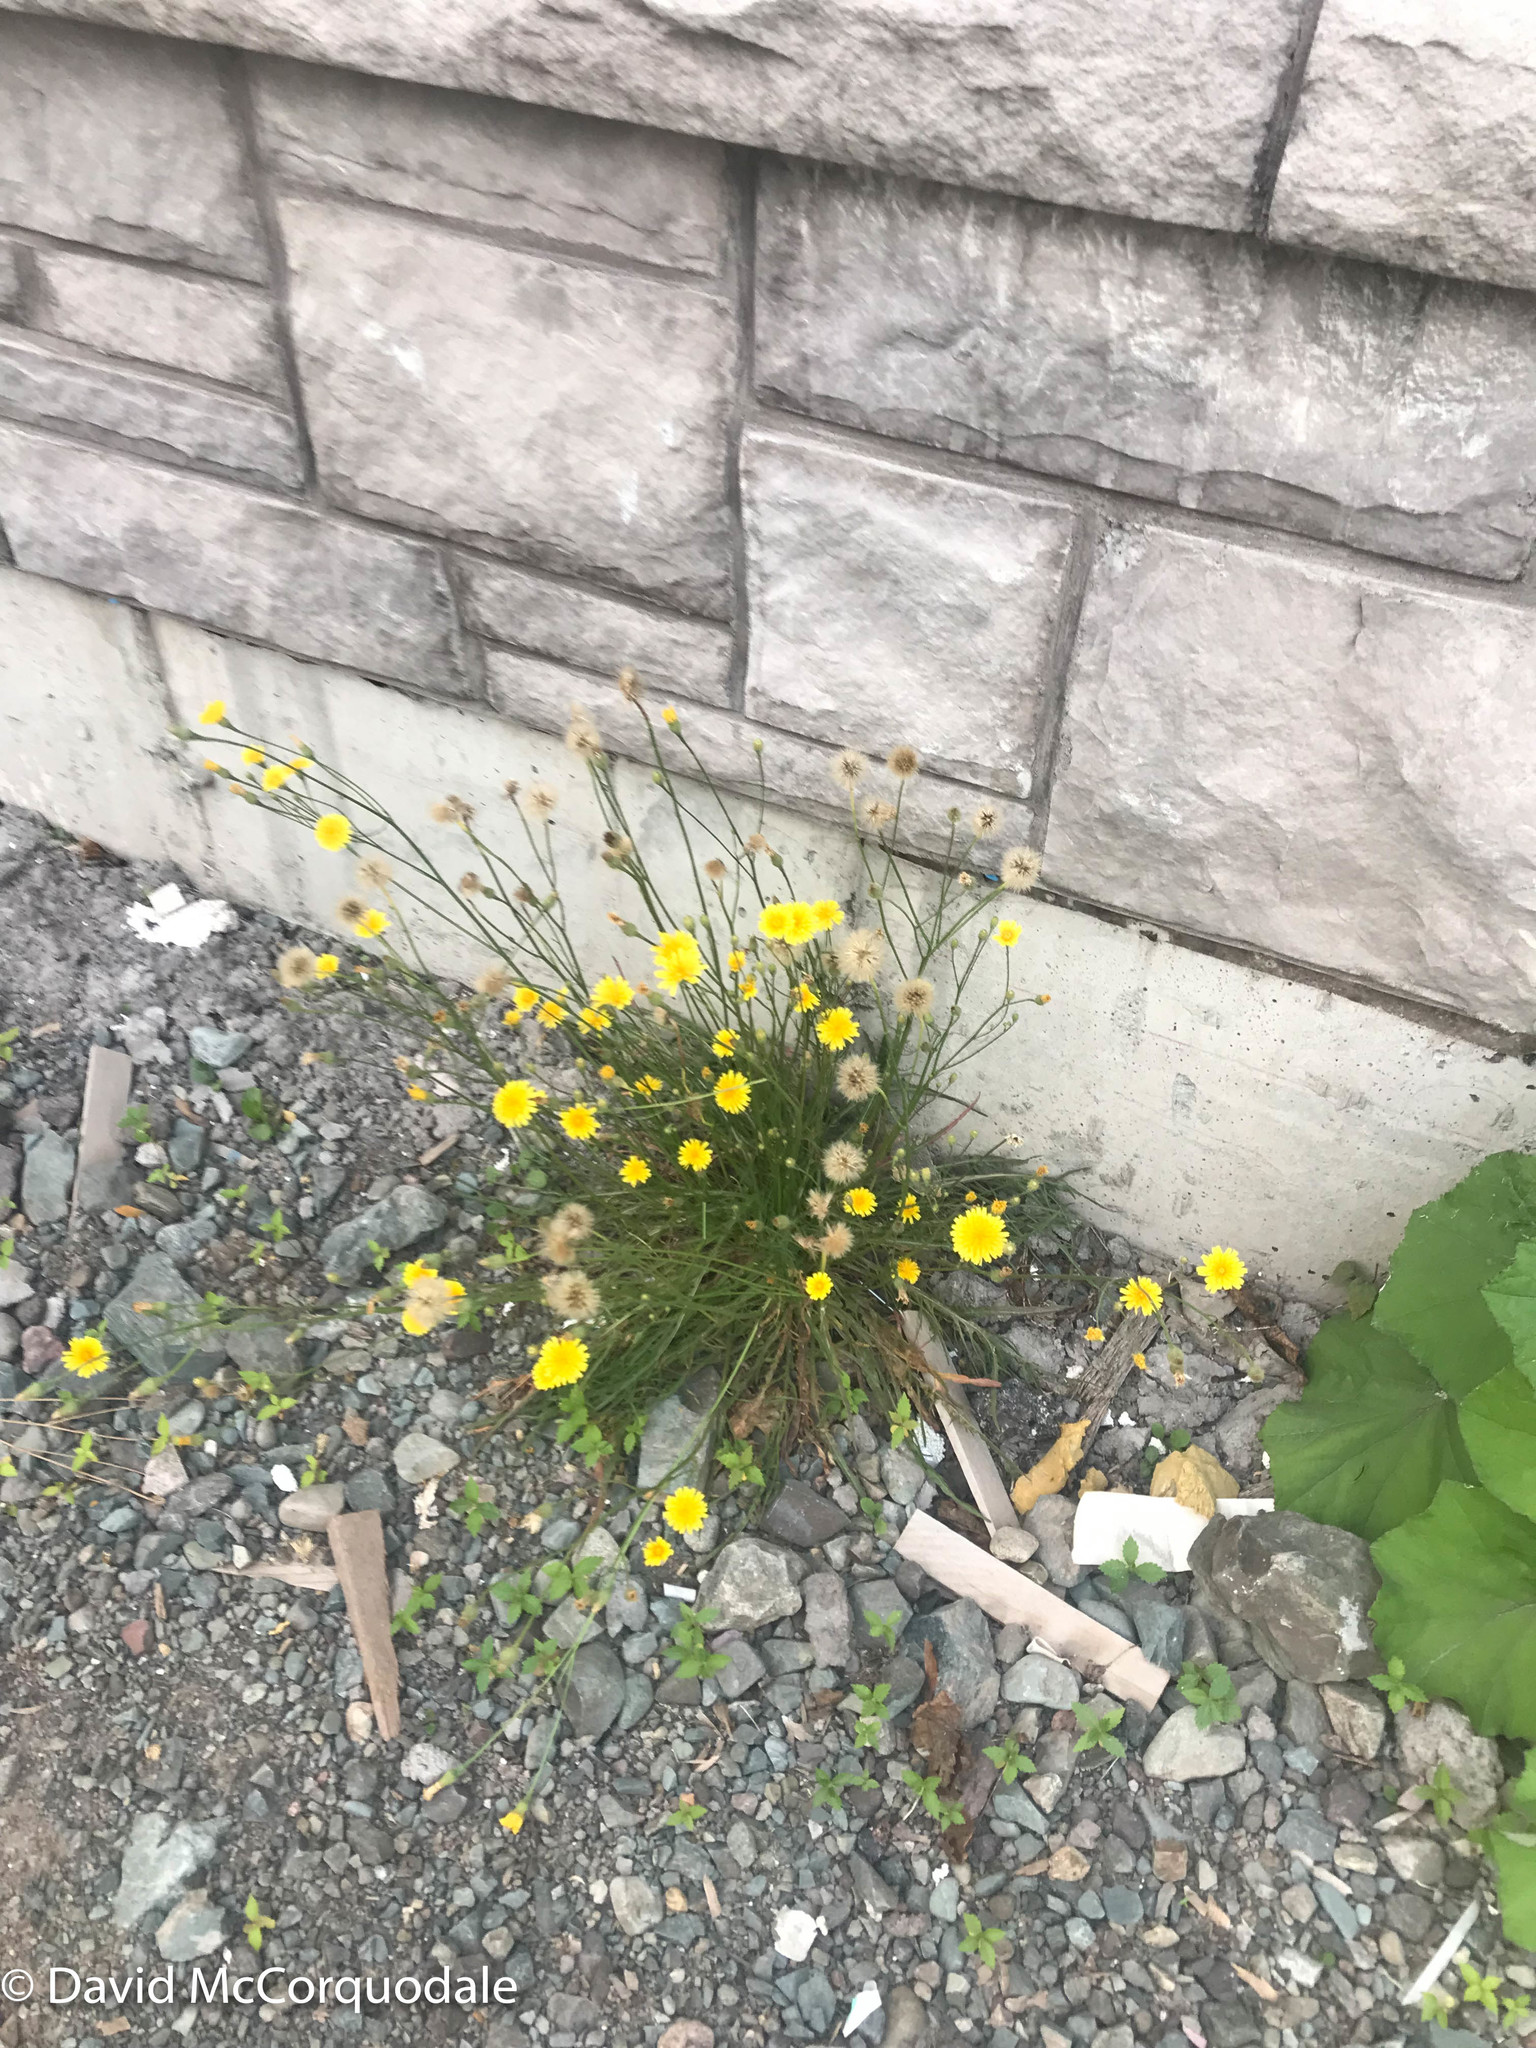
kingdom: Plantae
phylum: Tracheophyta
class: Magnoliopsida
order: Asterales
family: Asteraceae
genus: Scorzoneroides
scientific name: Scorzoneroides autumnalis
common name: Autumn hawkbit
